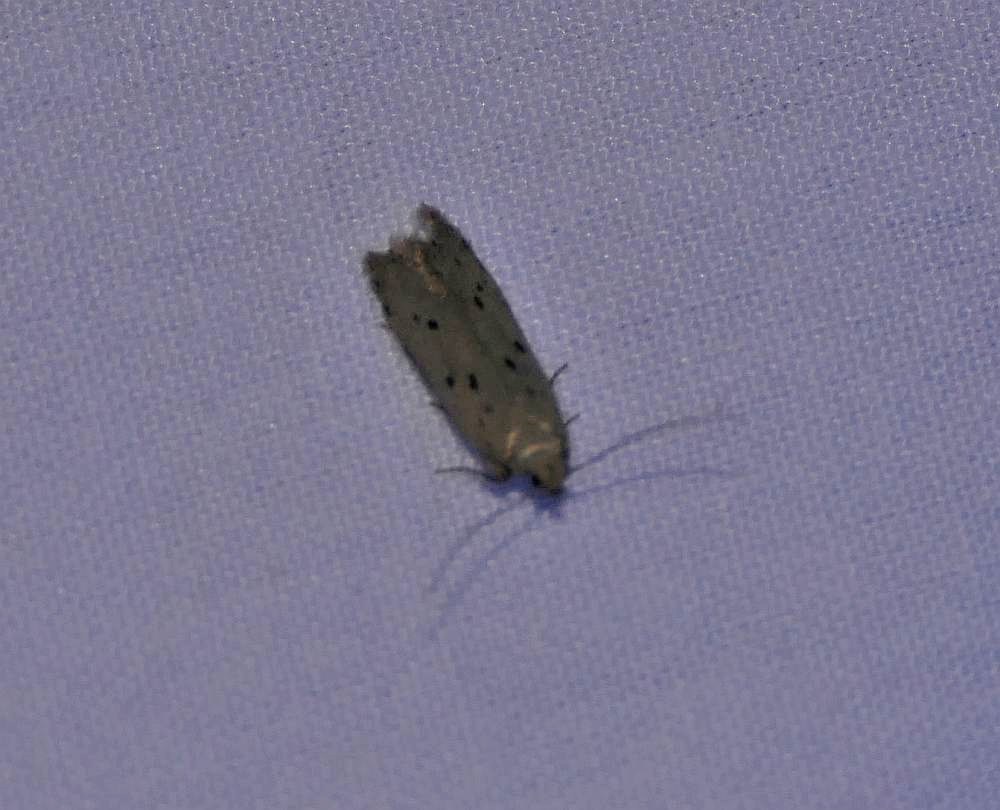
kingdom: Animalia
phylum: Arthropoda
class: Insecta
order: Lepidoptera
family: Gelechiidae
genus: Monochroa
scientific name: Monochroa quinquepunctella
